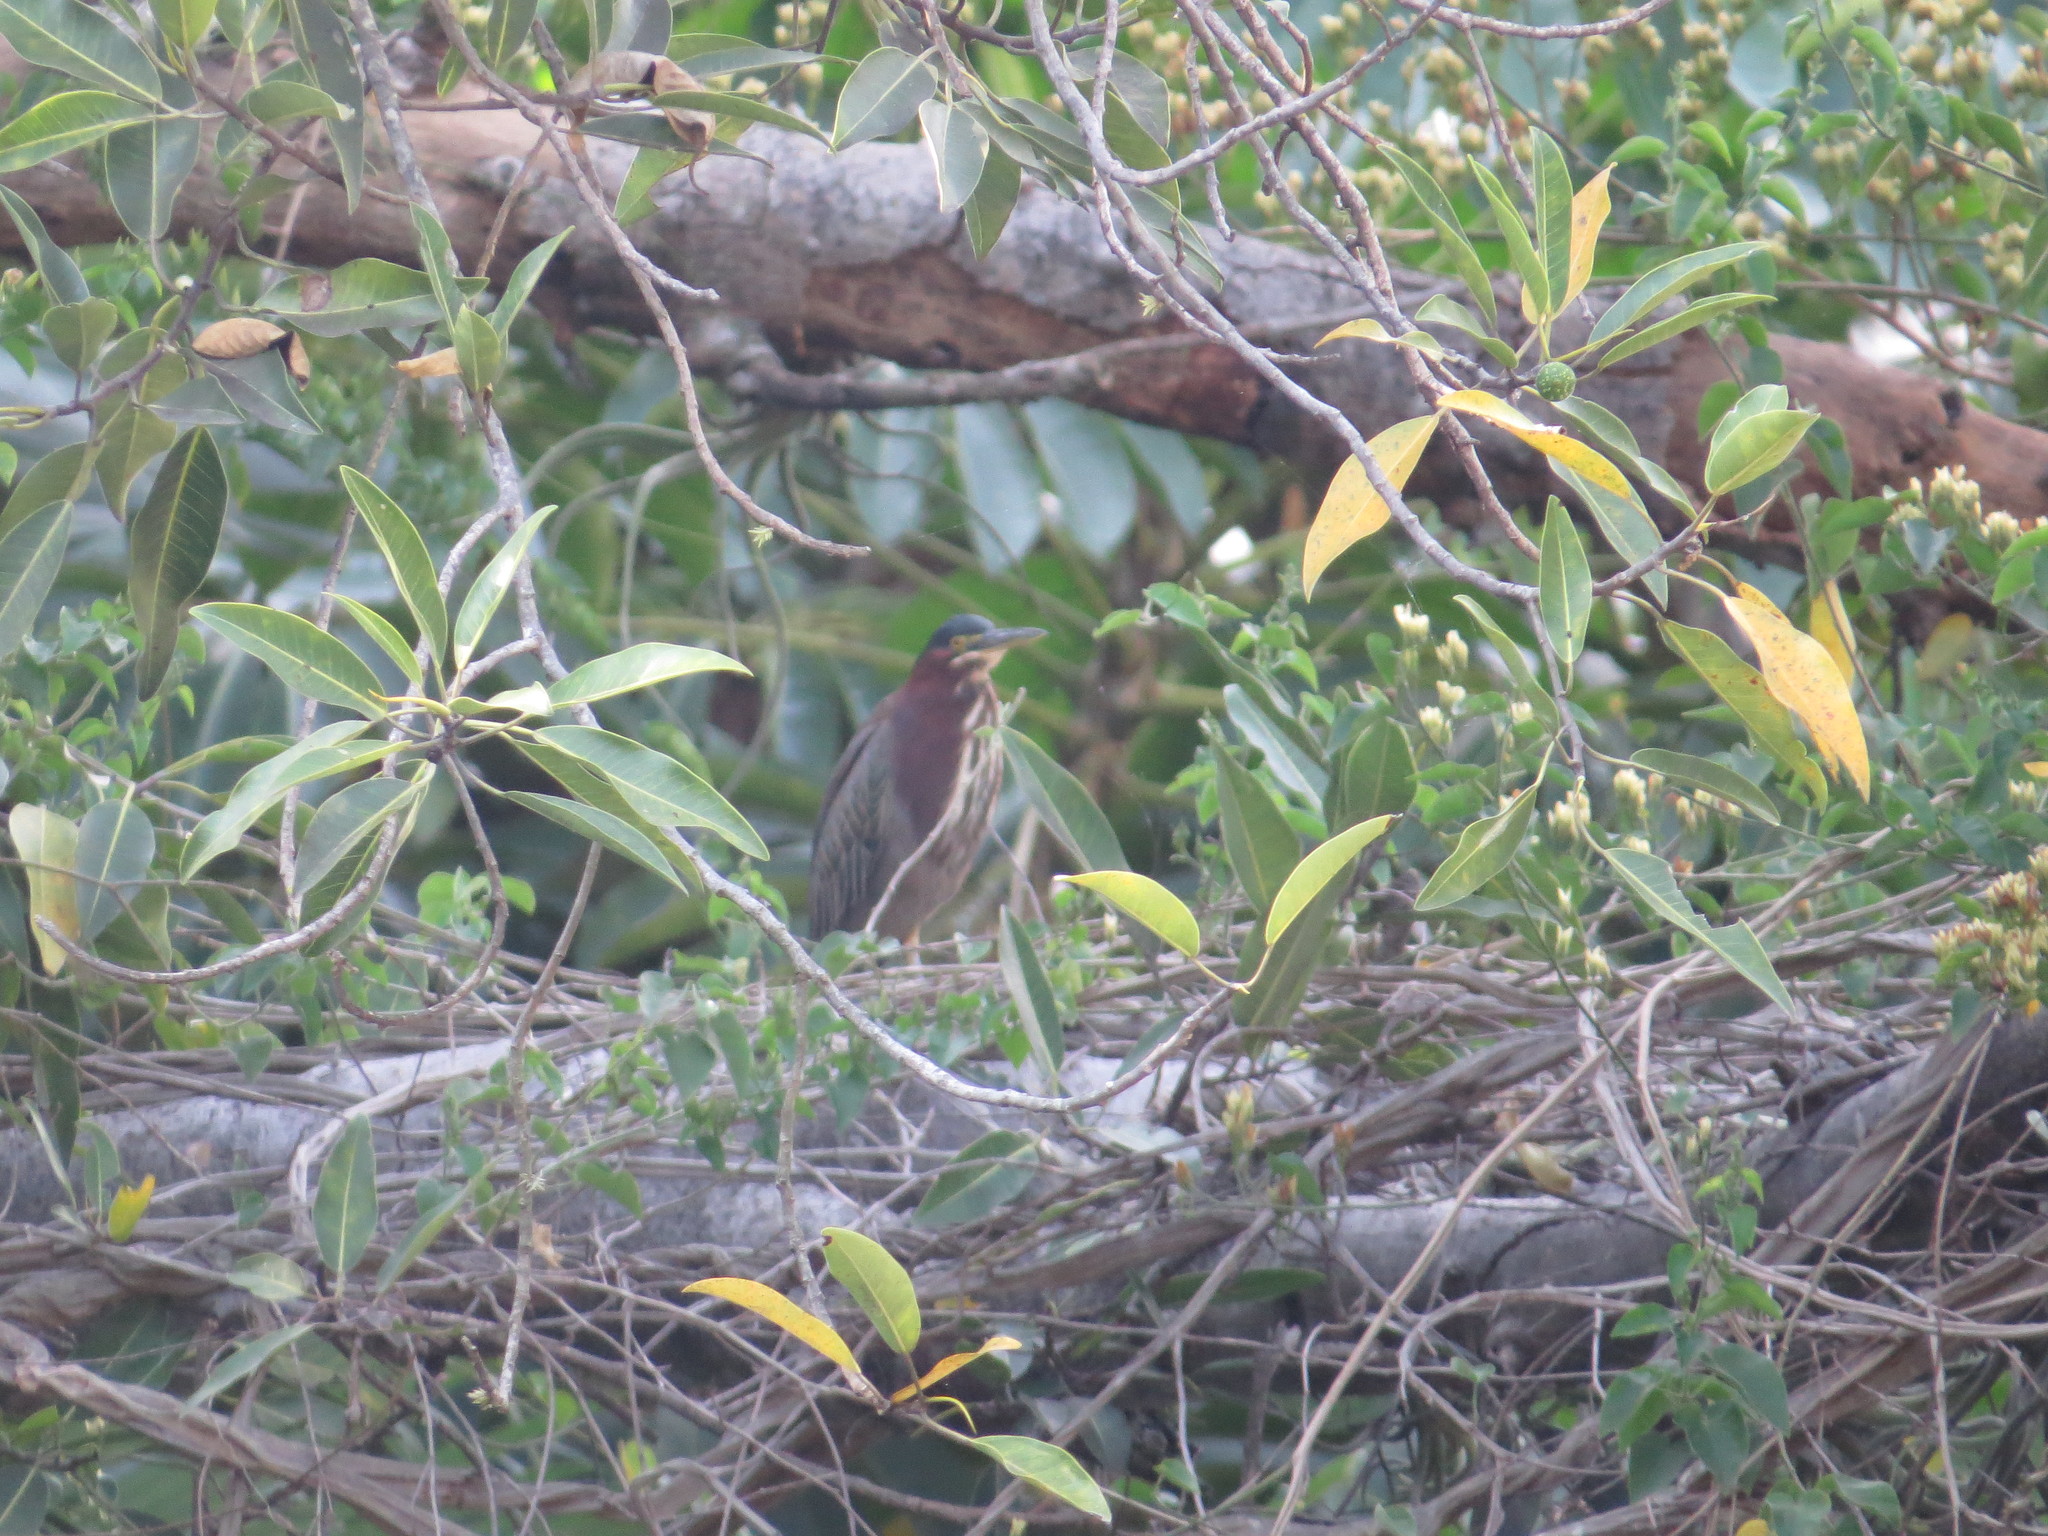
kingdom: Animalia
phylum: Chordata
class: Aves
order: Pelecaniformes
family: Ardeidae
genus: Butorides
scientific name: Butorides virescens
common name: Green heron
